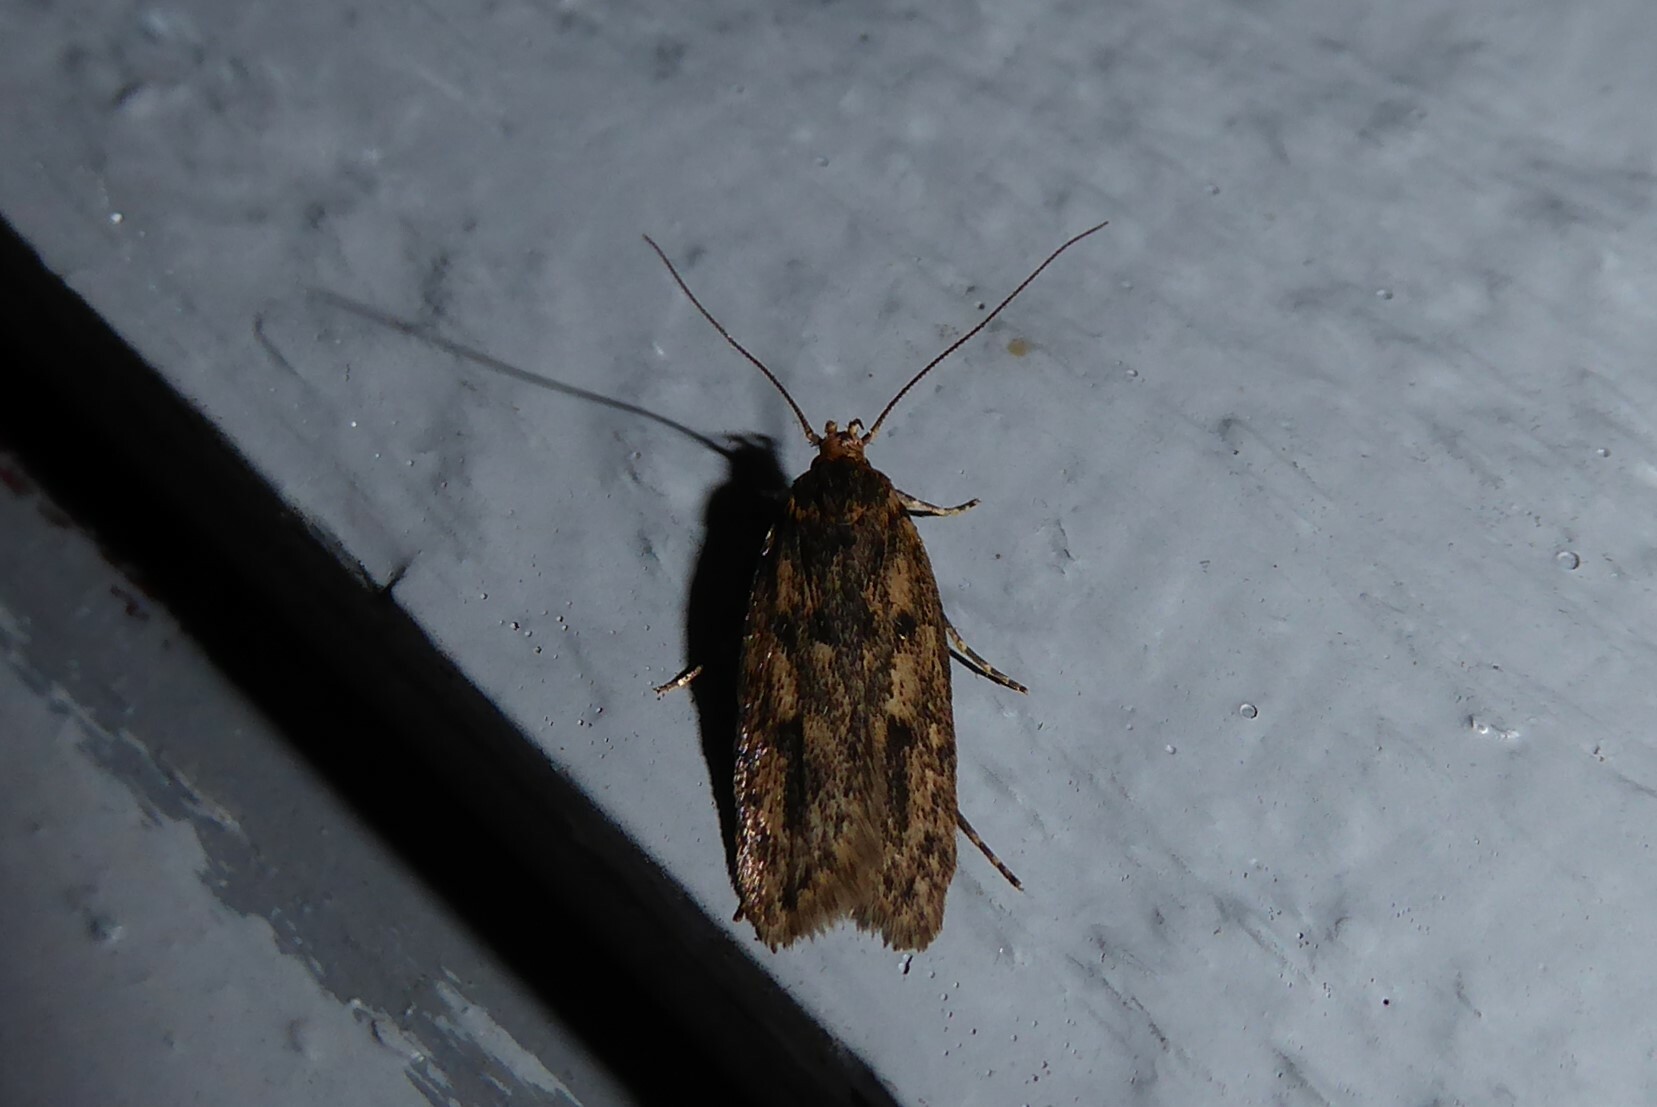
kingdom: Animalia
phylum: Arthropoda
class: Insecta
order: Lepidoptera
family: Oecophoridae
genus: Hofmannophila
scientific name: Hofmannophila pseudospretella
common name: Brown house moth
